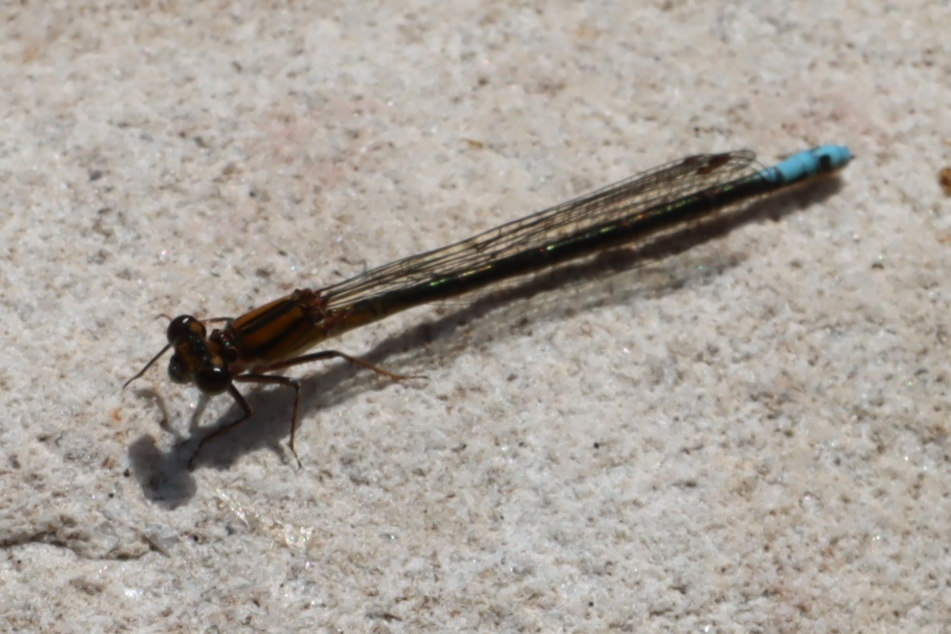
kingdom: Animalia
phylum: Arthropoda
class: Insecta
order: Odonata
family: Coenagrionidae
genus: Pseudagrion
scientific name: Pseudagrion furcigerum
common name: Palmiet sprite
